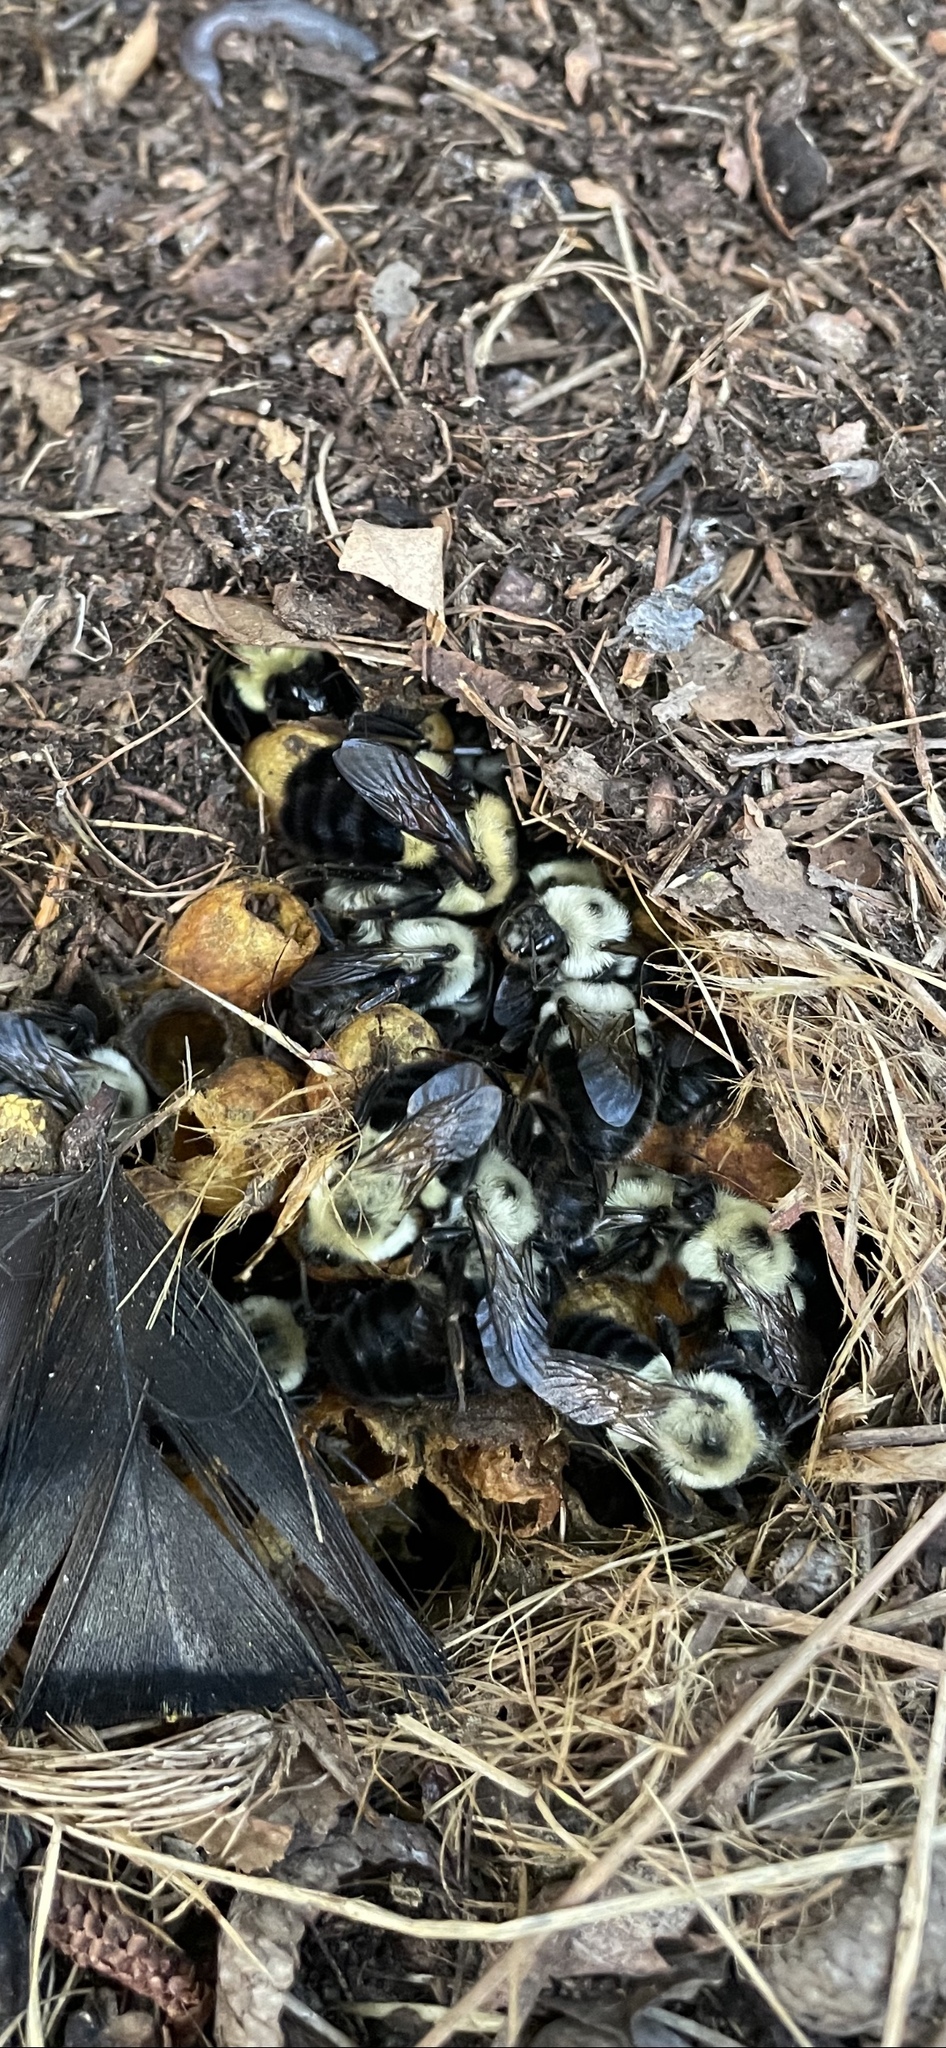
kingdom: Animalia
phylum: Arthropoda
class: Insecta
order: Hymenoptera
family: Apidae
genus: Bombus
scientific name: Bombus bimaculatus
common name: Two-spotted bumble bee
